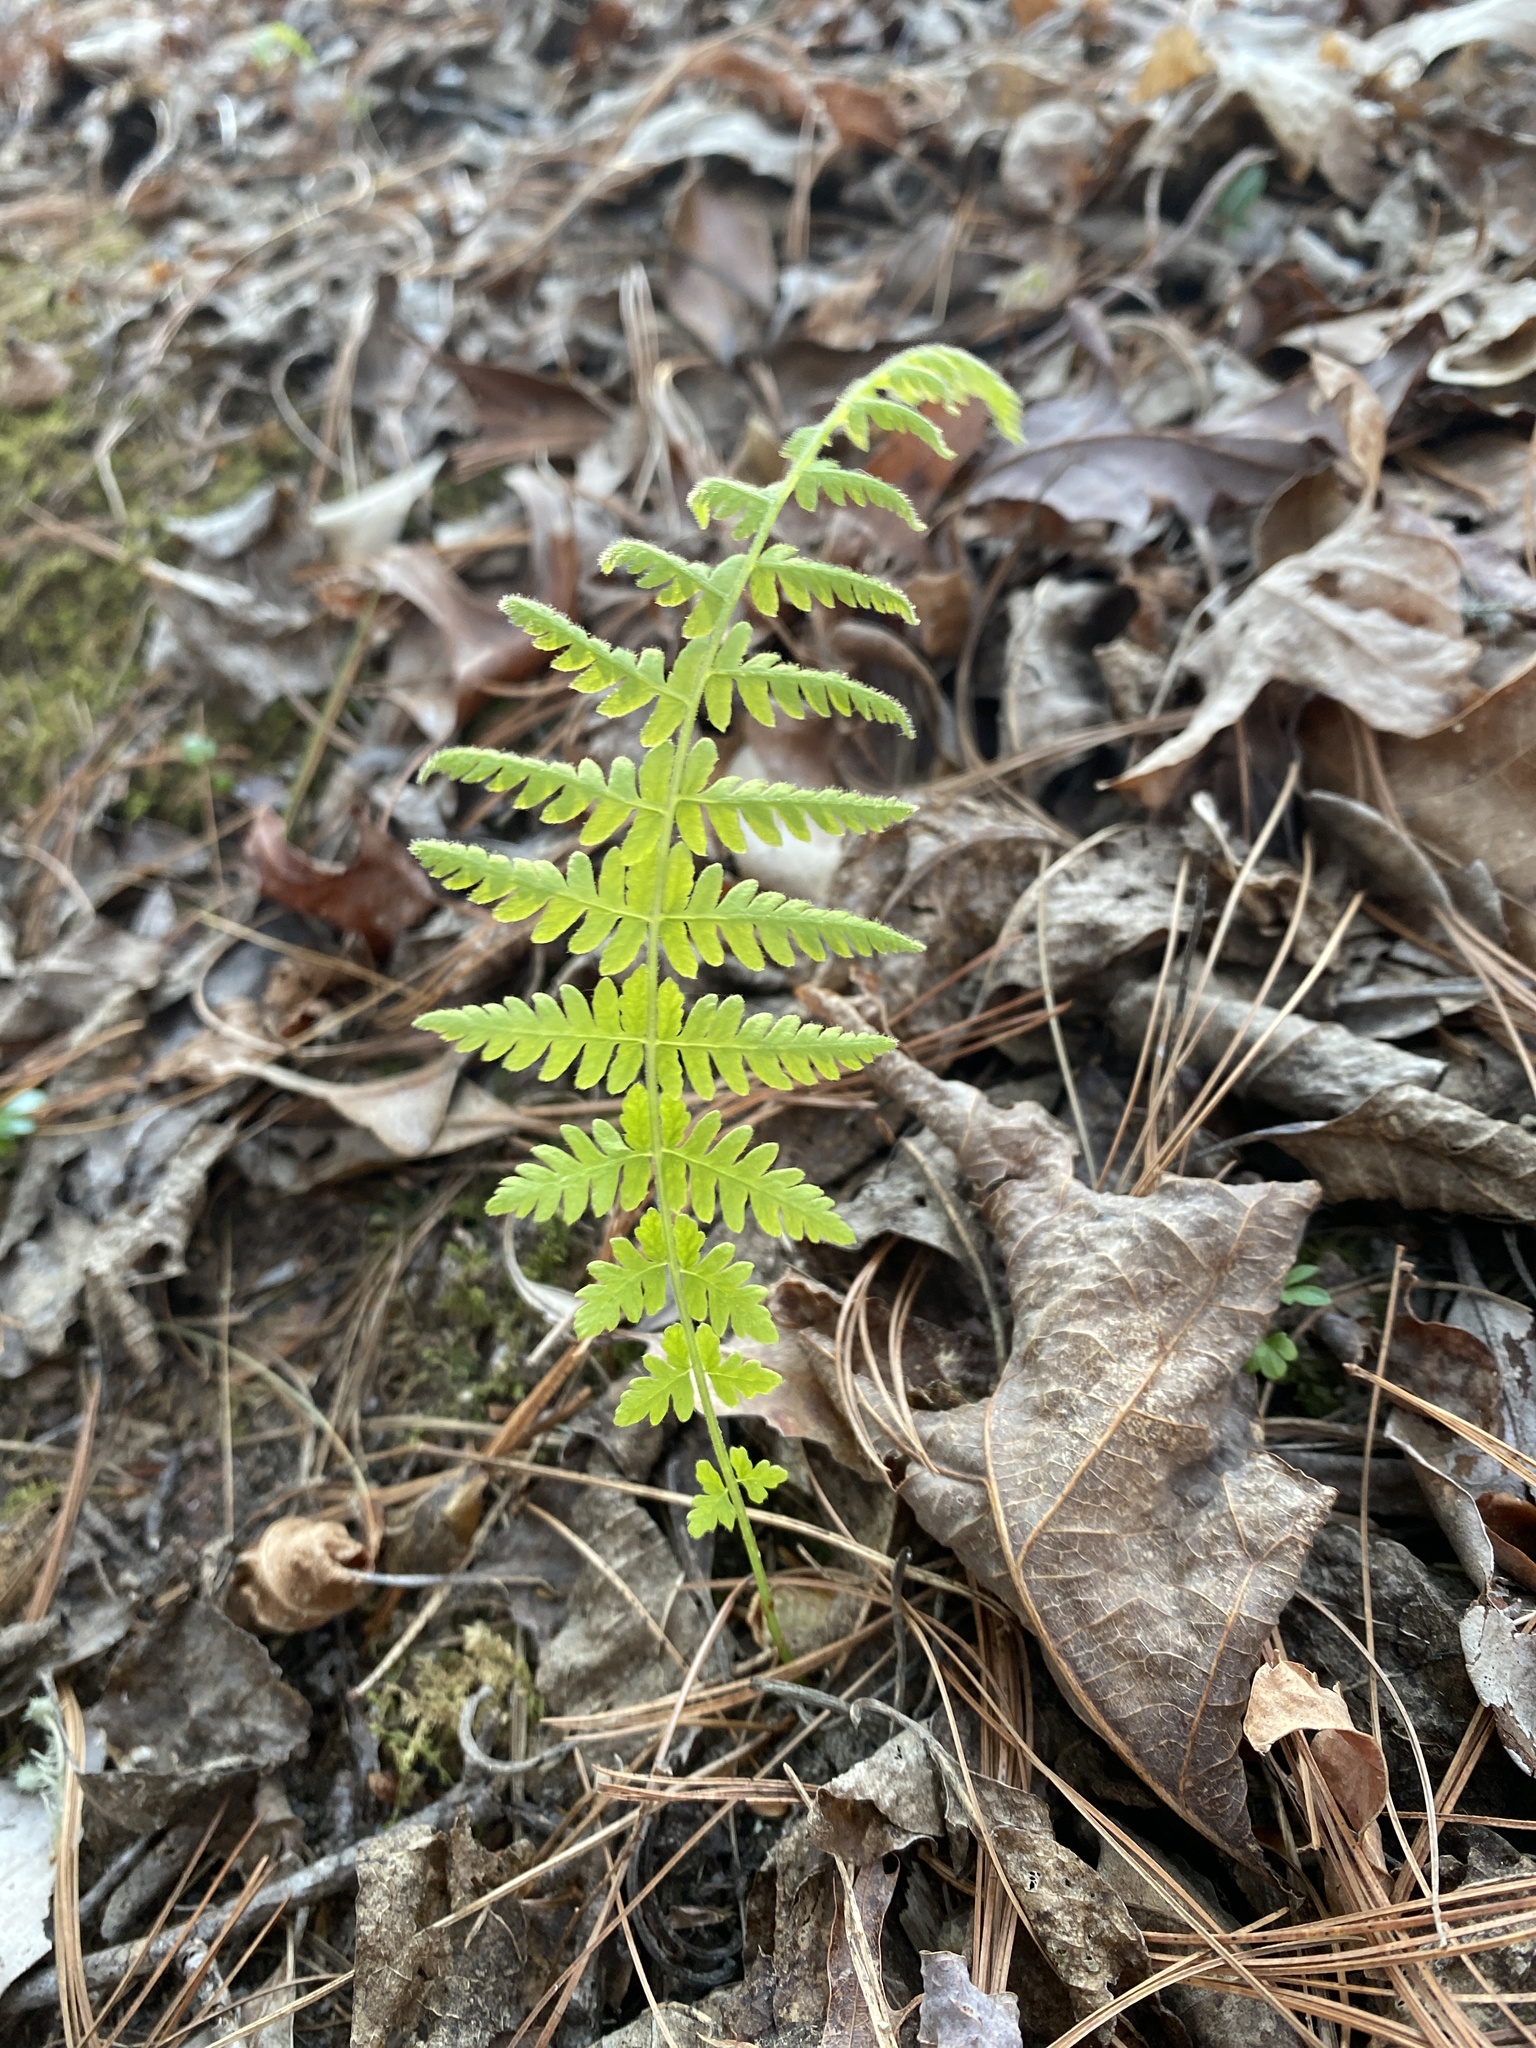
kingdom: Plantae
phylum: Tracheophyta
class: Polypodiopsida
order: Polypodiales
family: Thelypteridaceae
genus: Amauropelta
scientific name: Amauropelta noveboracensis
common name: New york fern
